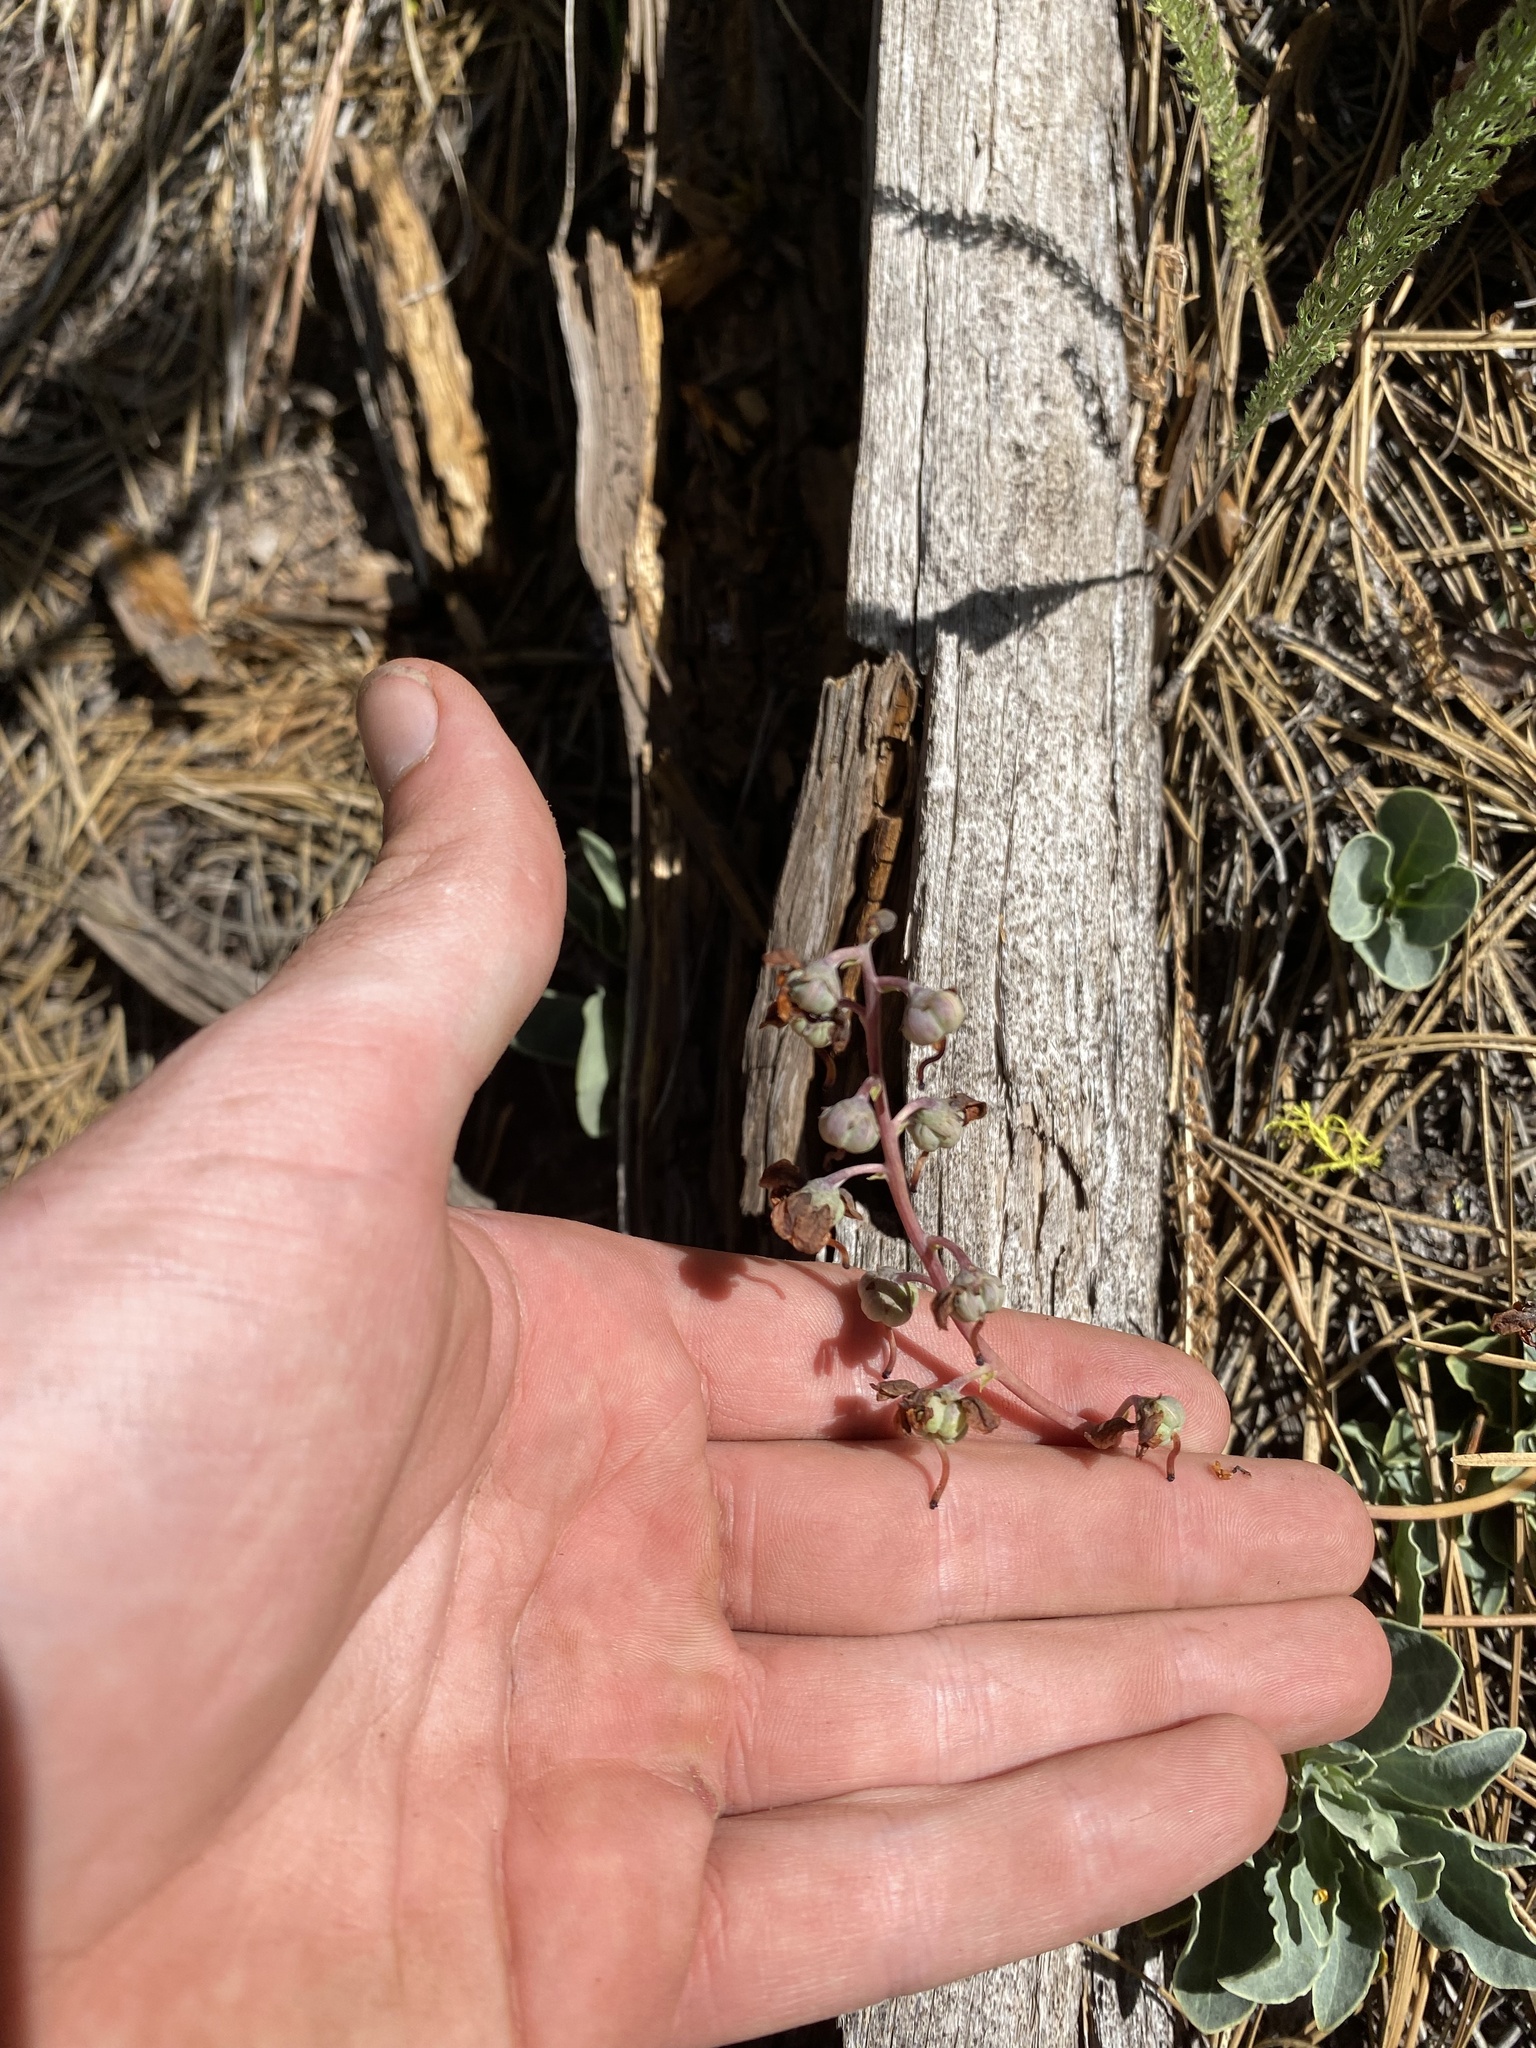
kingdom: Plantae
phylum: Tracheophyta
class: Magnoliopsida
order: Ericales
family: Ericaceae
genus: Pyrola
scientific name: Pyrola dentata
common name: Tooth-leaved wintergreen
